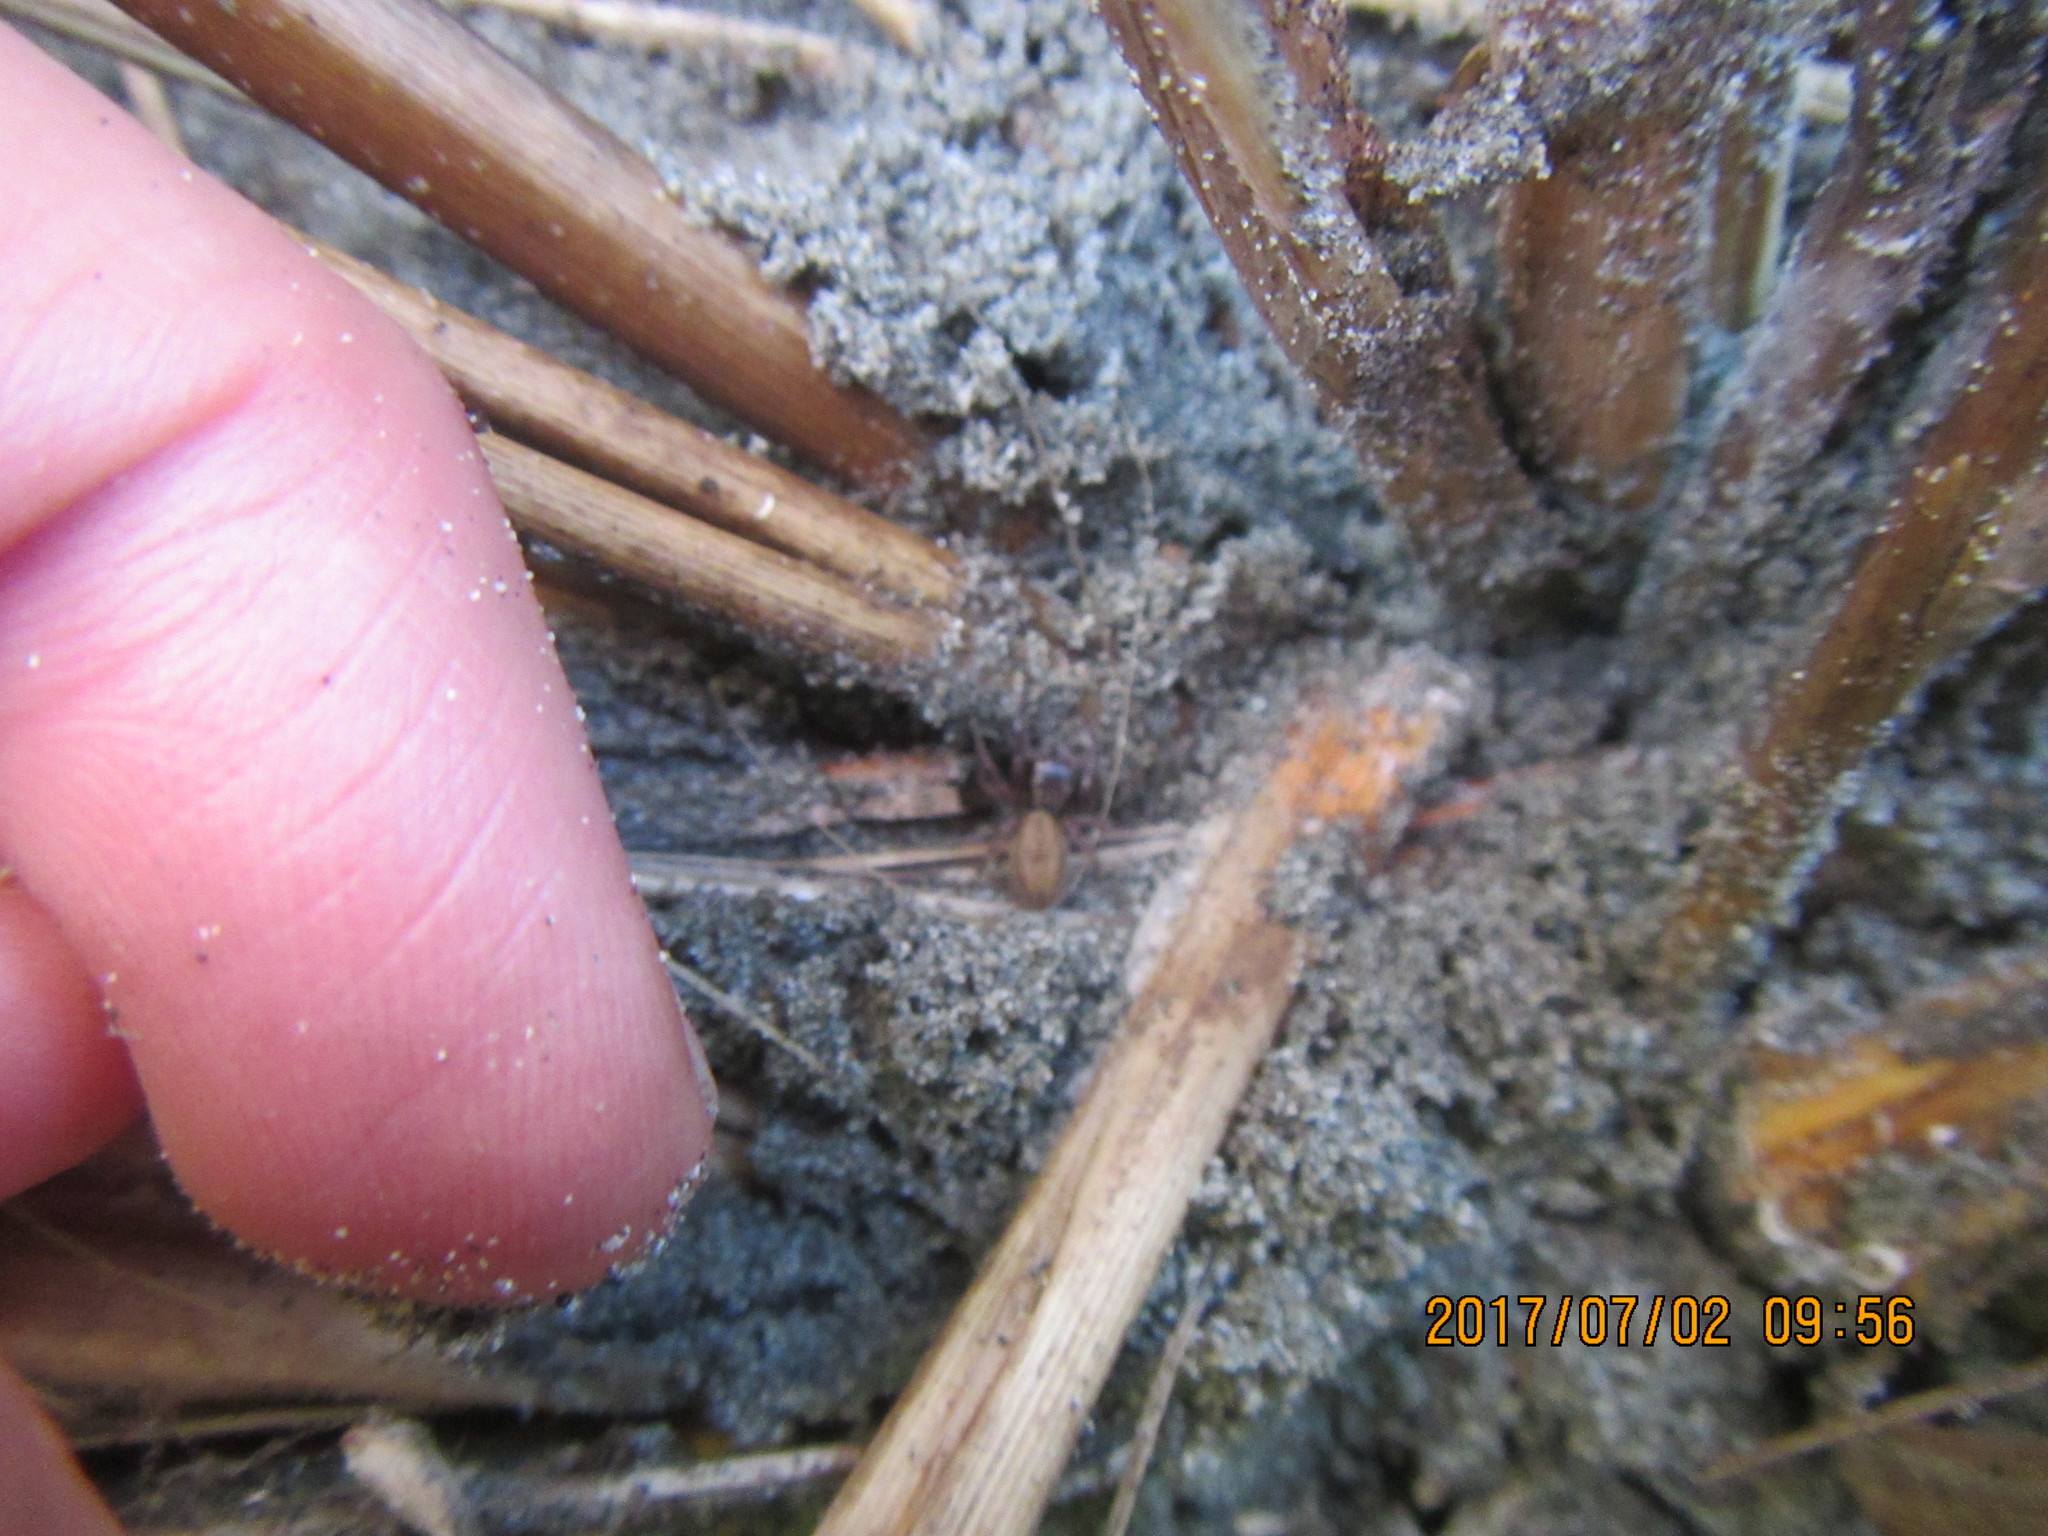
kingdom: Animalia
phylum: Arthropoda
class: Arachnida
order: Araneae
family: Salticidae
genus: Trite
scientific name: Trite auricoma
